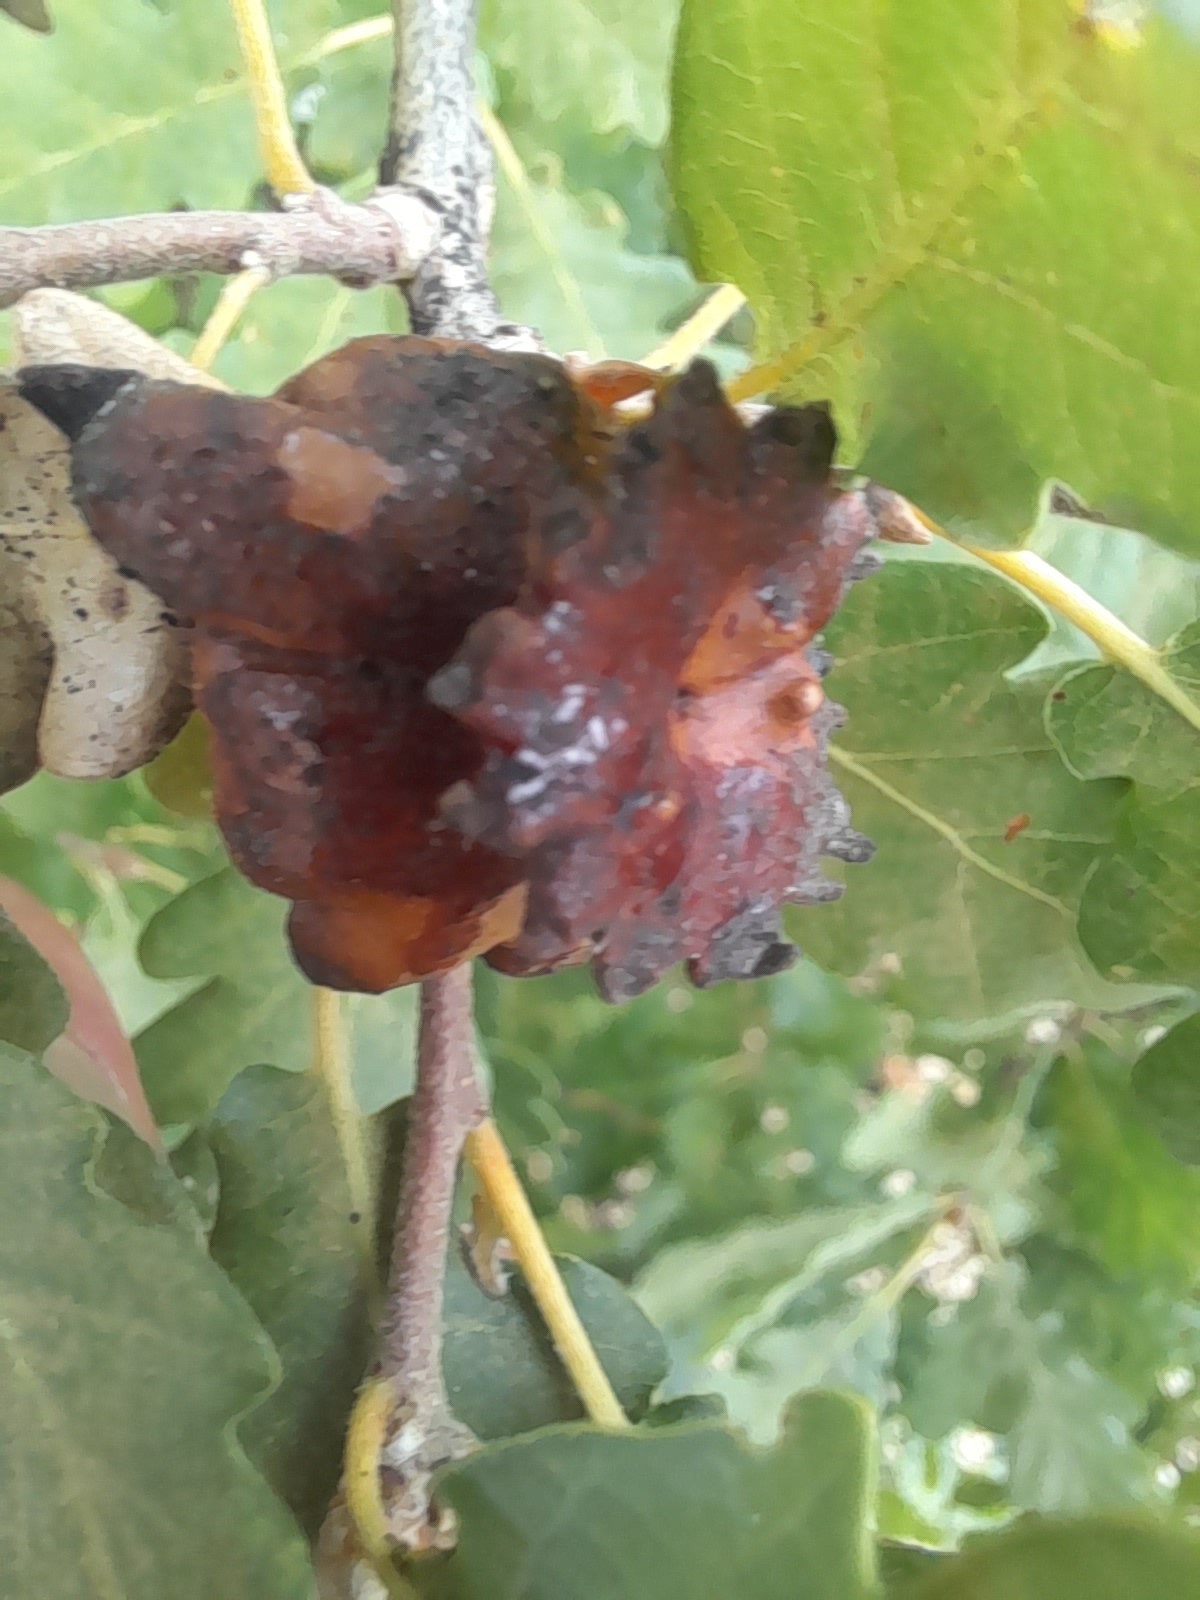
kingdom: Animalia
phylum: Arthropoda
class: Insecta
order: Hymenoptera
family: Cynipidae
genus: Andricus
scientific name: Andricus dentimitratus
